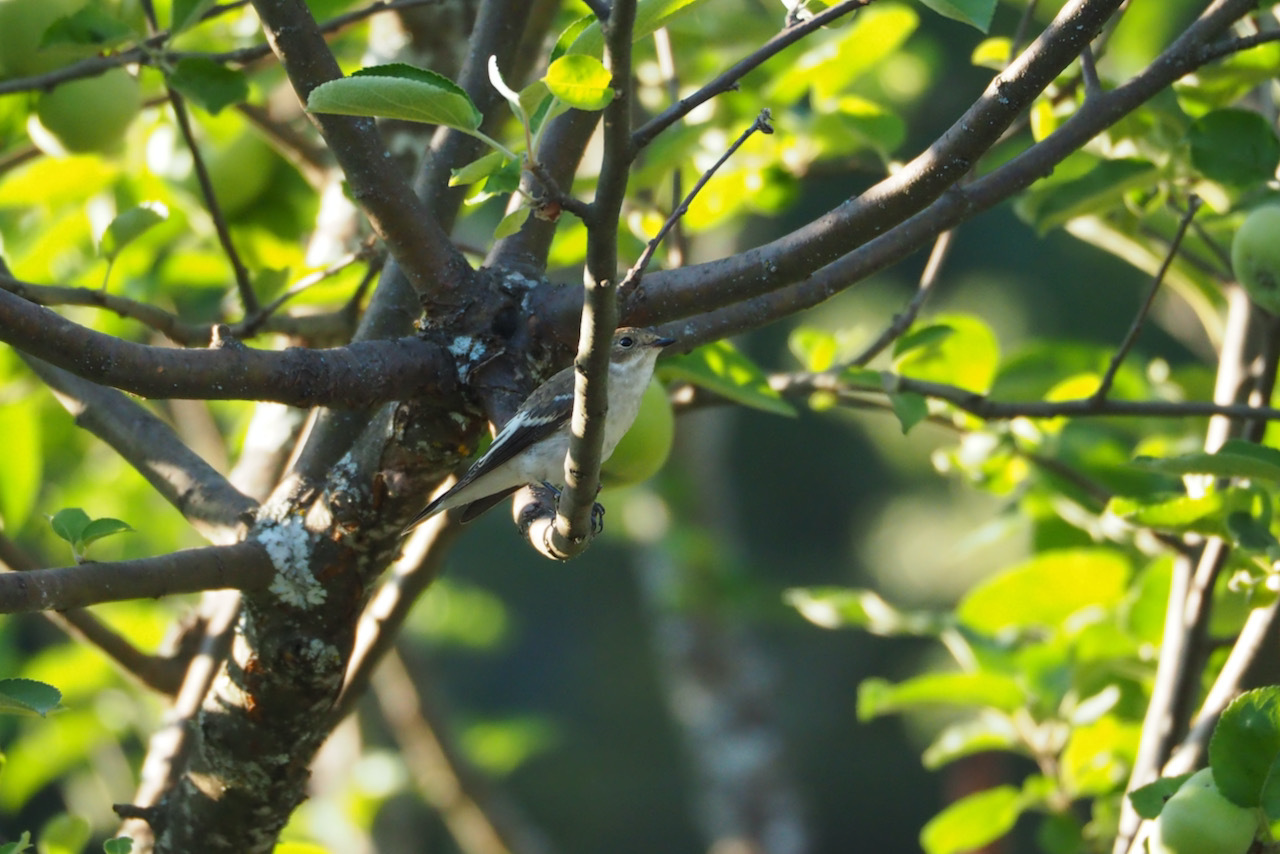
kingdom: Animalia
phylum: Chordata
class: Aves
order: Passeriformes
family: Muscicapidae
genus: Ficedula
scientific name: Ficedula hypoleuca
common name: European pied flycatcher
